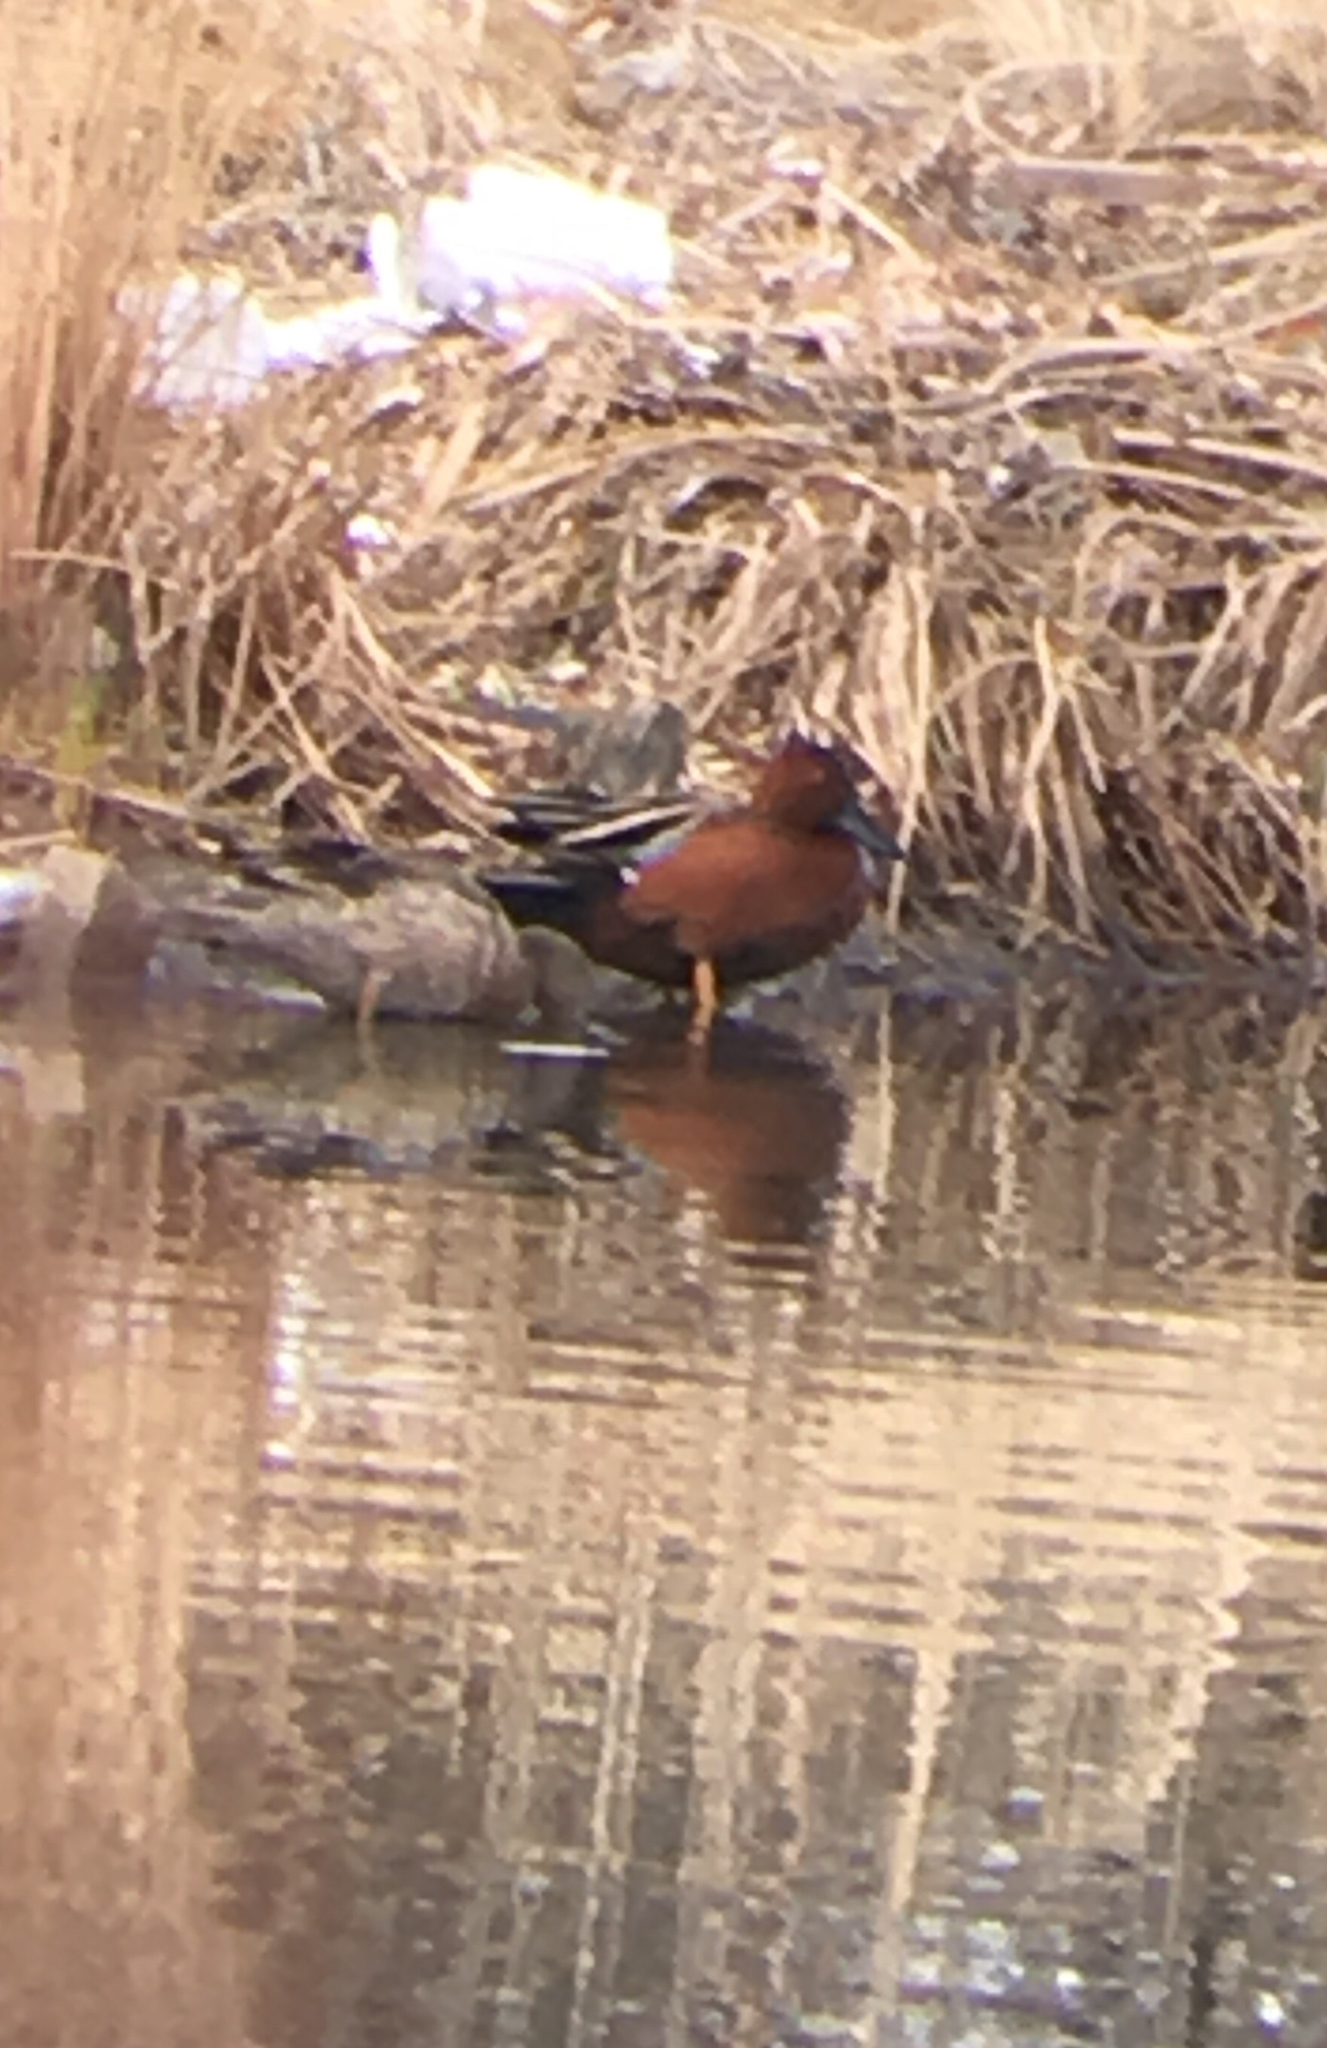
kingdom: Animalia
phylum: Chordata
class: Aves
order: Anseriformes
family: Anatidae
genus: Spatula
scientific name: Spatula cyanoptera
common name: Cinnamon teal
